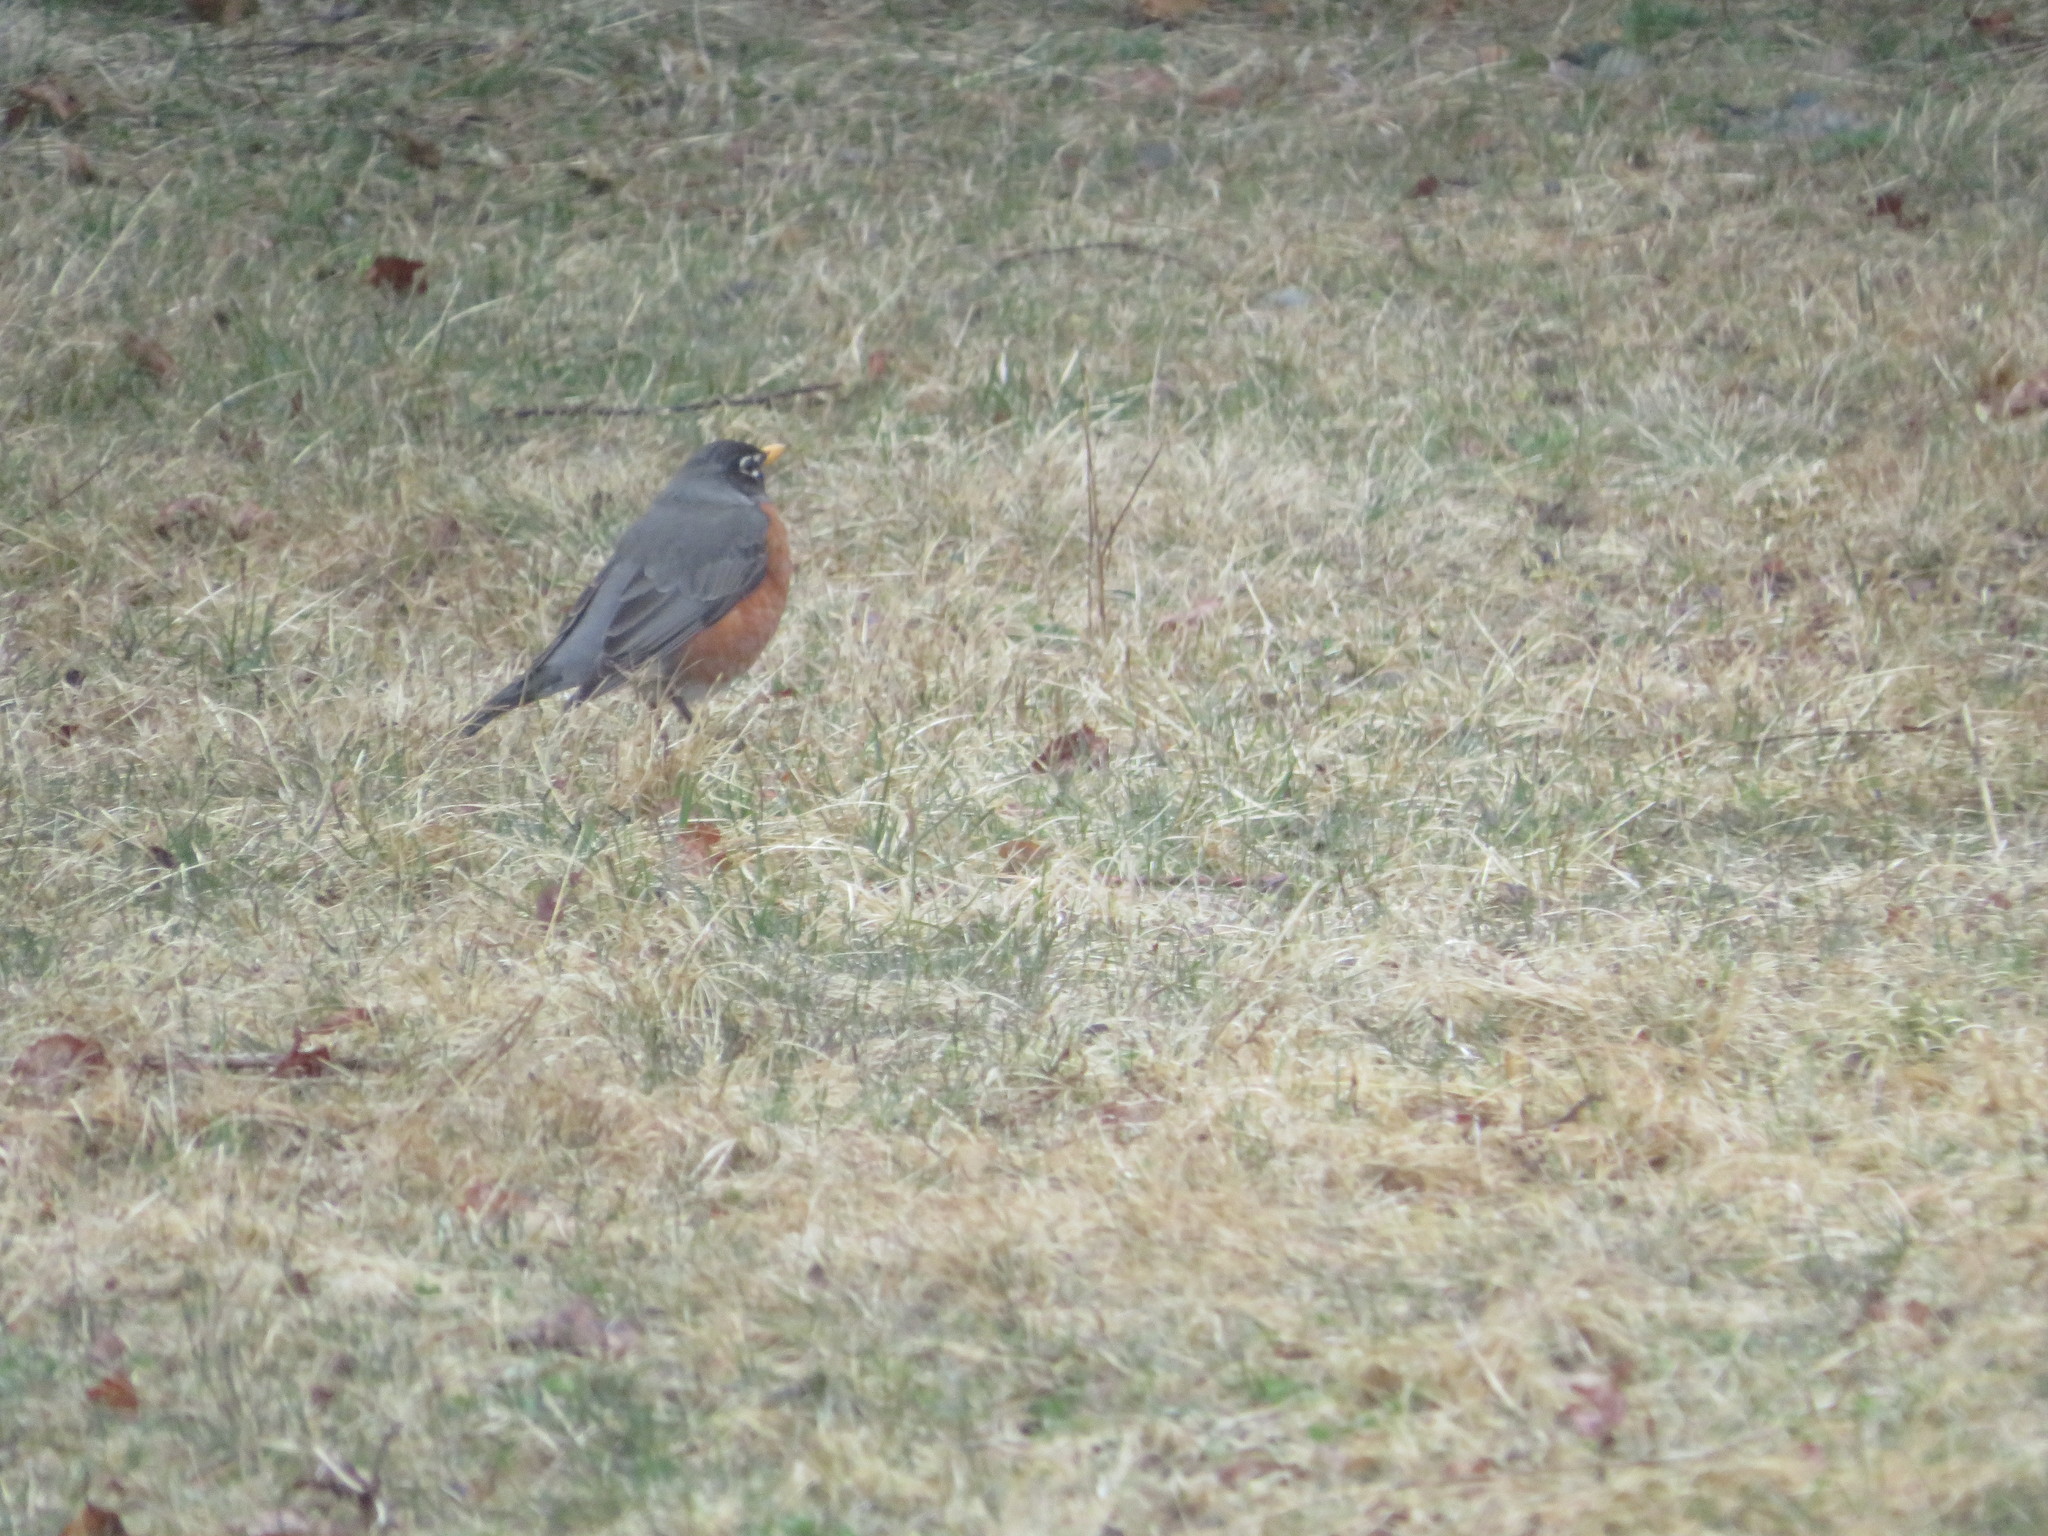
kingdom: Animalia
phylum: Chordata
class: Aves
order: Passeriformes
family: Turdidae
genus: Turdus
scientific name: Turdus migratorius
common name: American robin
